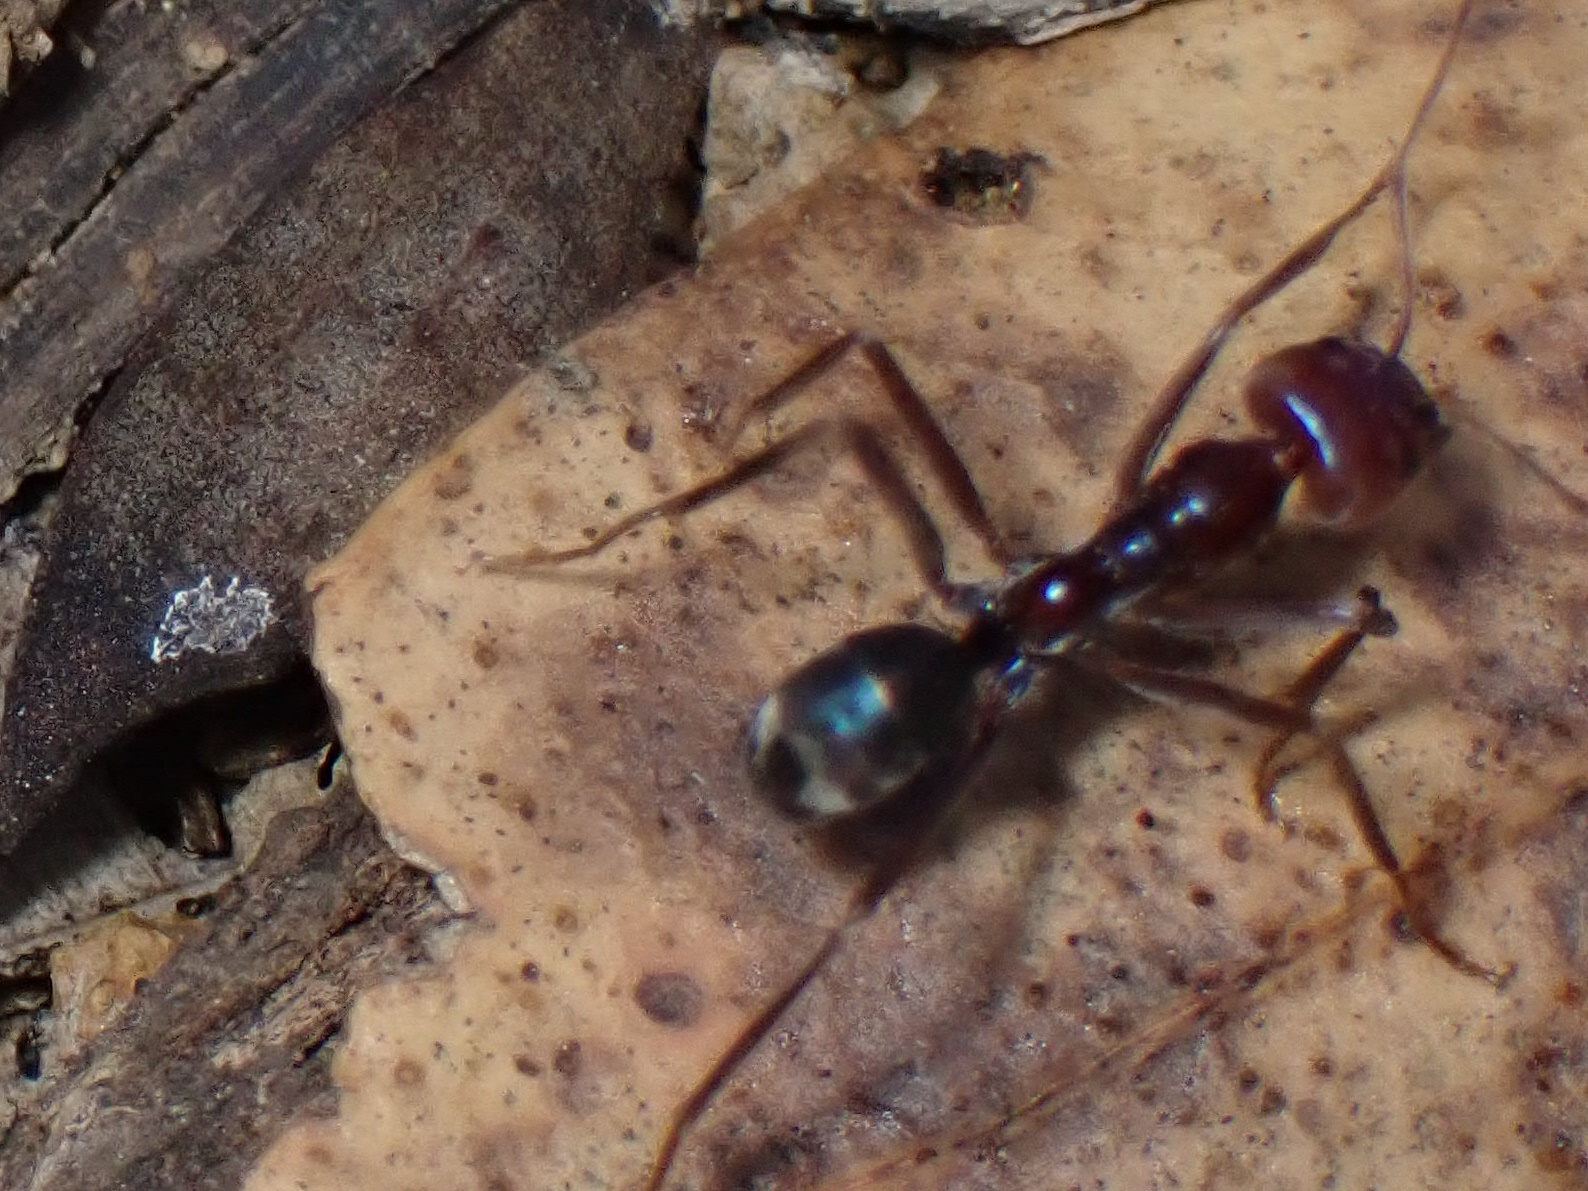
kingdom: Animalia
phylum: Arthropoda
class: Insecta
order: Hymenoptera
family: Formicidae
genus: Iridomyrmex
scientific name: Iridomyrmex purpureus
